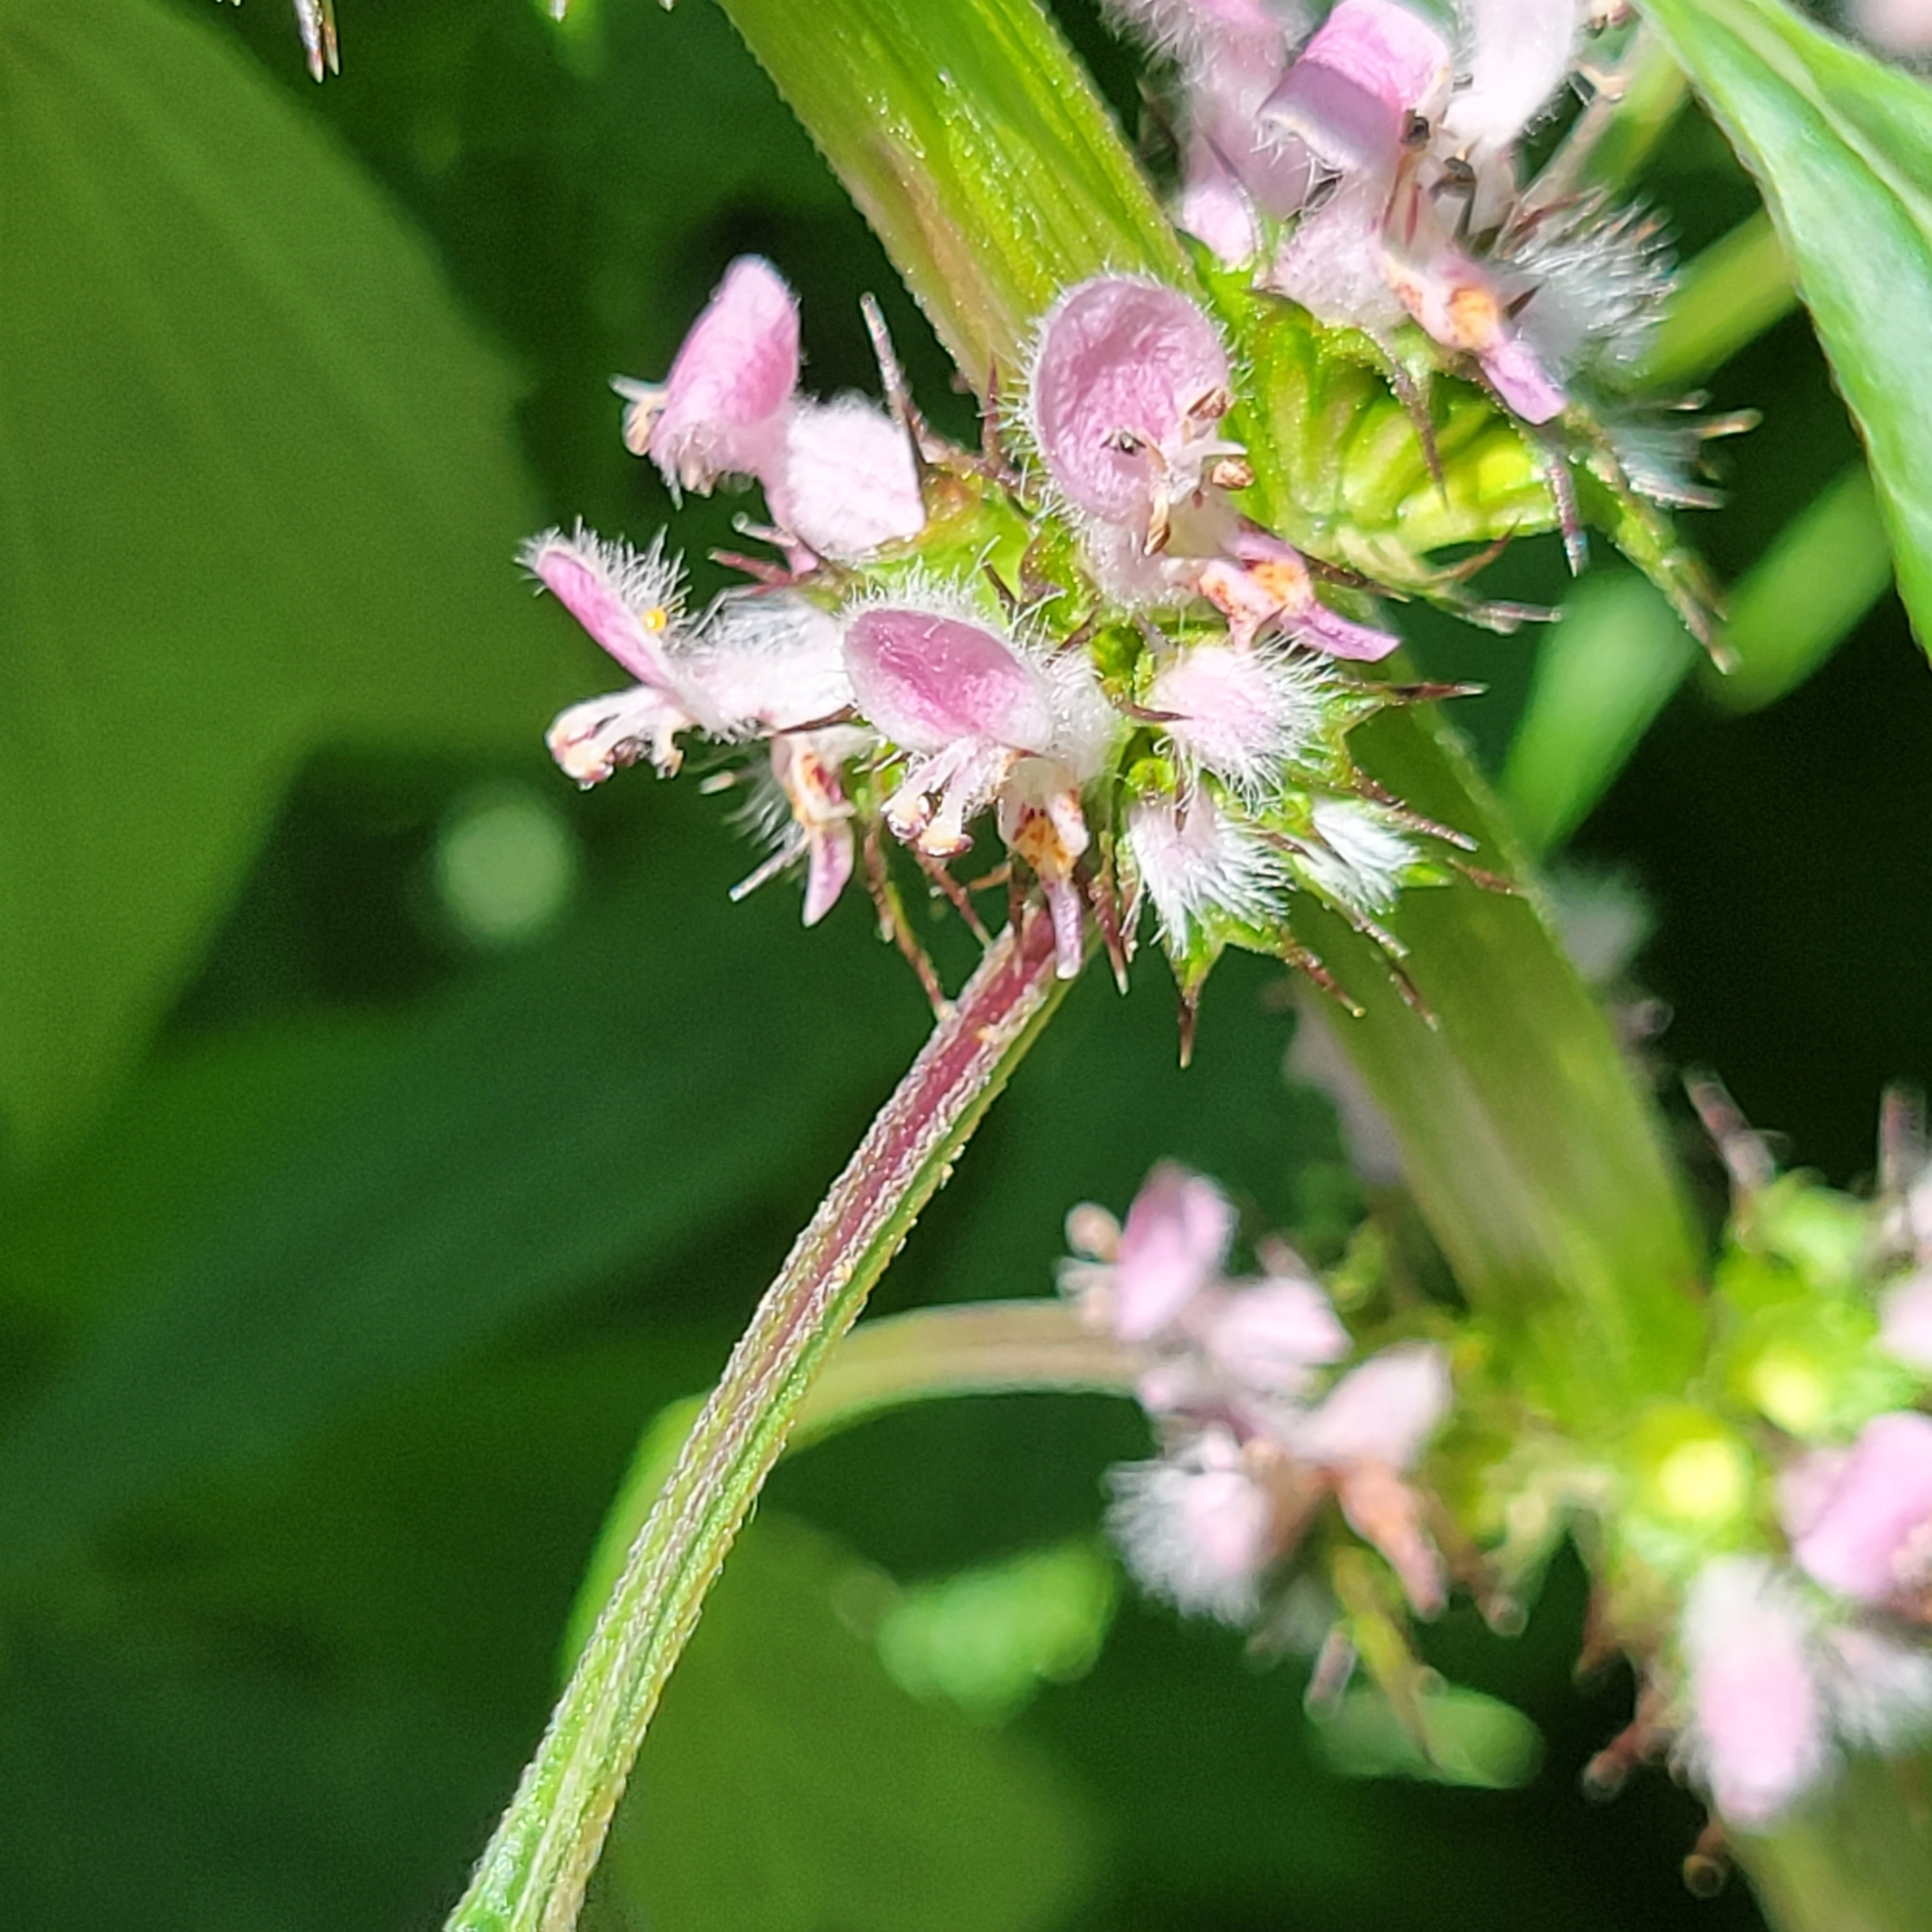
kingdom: Plantae
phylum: Tracheophyta
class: Magnoliopsida
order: Lamiales
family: Lamiaceae
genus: Leonurus
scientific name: Leonurus cardiaca
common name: Motherwort
